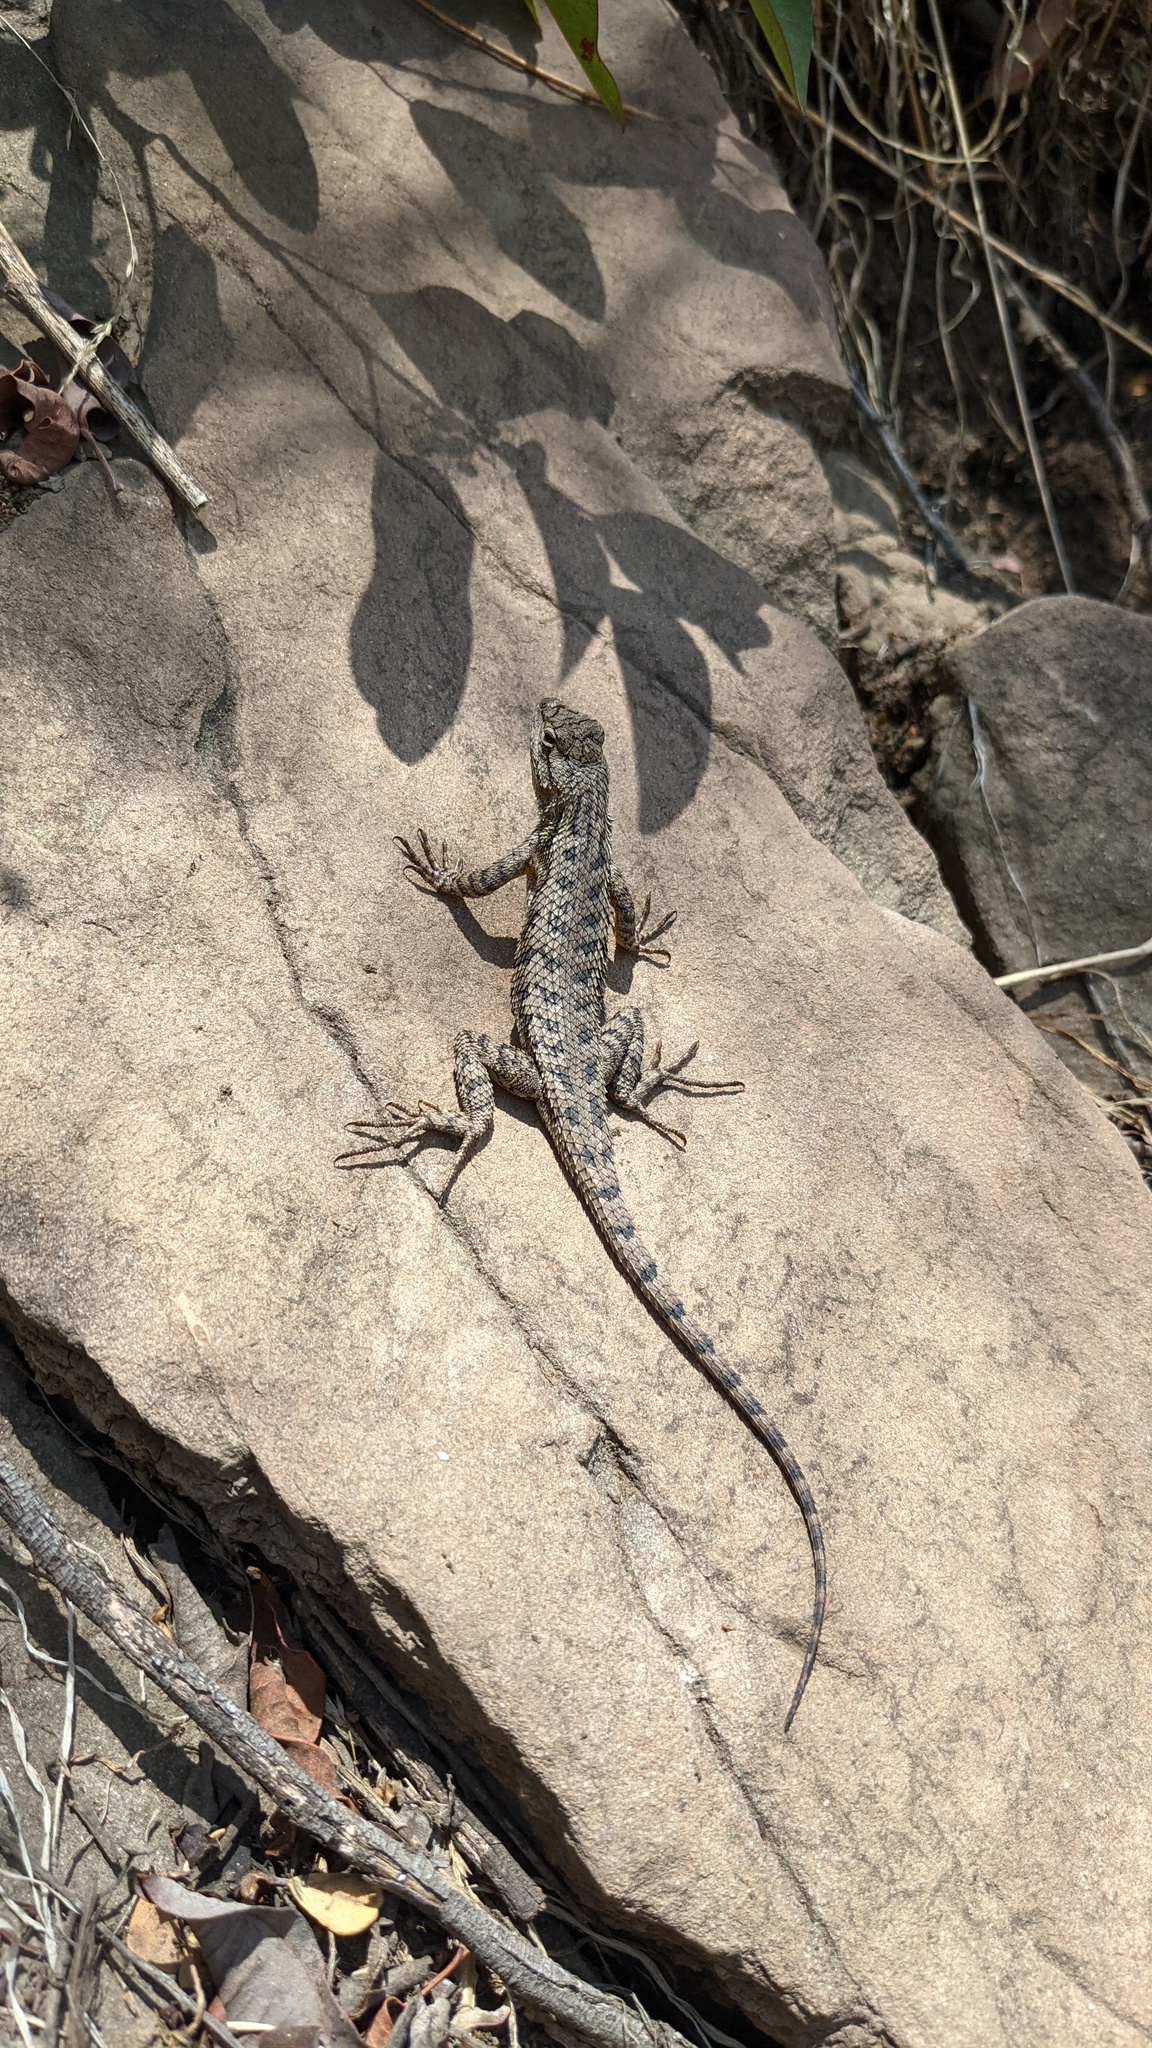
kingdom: Animalia
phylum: Chordata
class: Squamata
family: Phrynosomatidae
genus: Sceloporus
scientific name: Sceloporus occidentalis
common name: Western fence lizard
